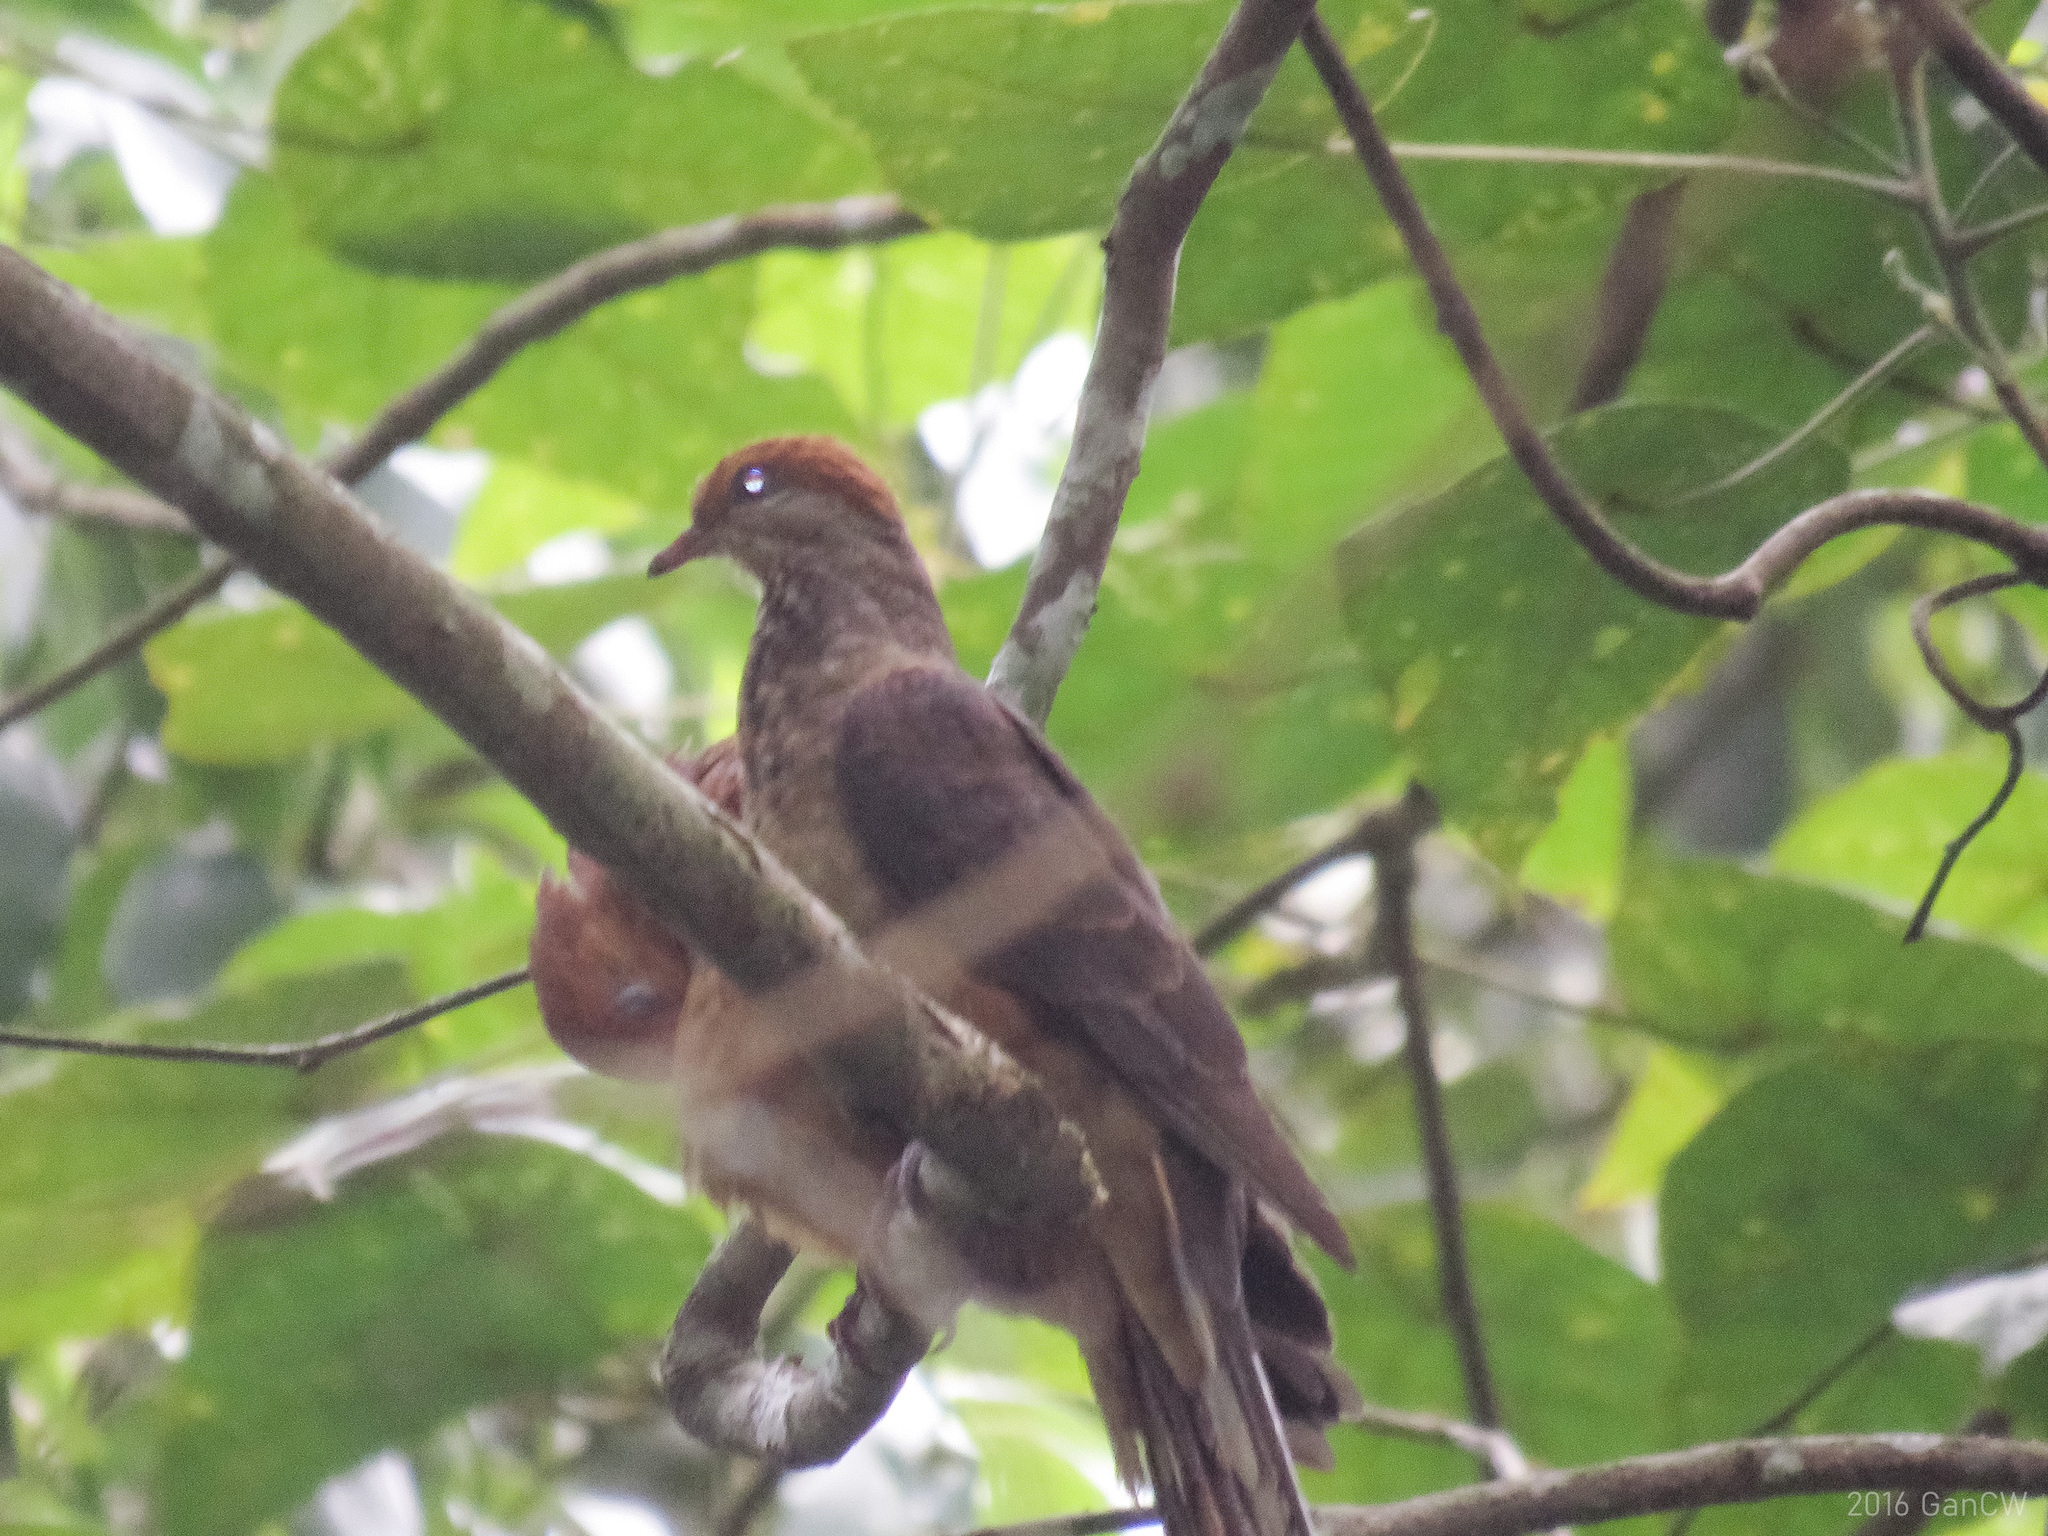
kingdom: Animalia
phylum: Chordata
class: Aves
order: Columbiformes
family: Columbidae
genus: Macropygia
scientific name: Macropygia ruficeps
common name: Little cuckoo-dove
